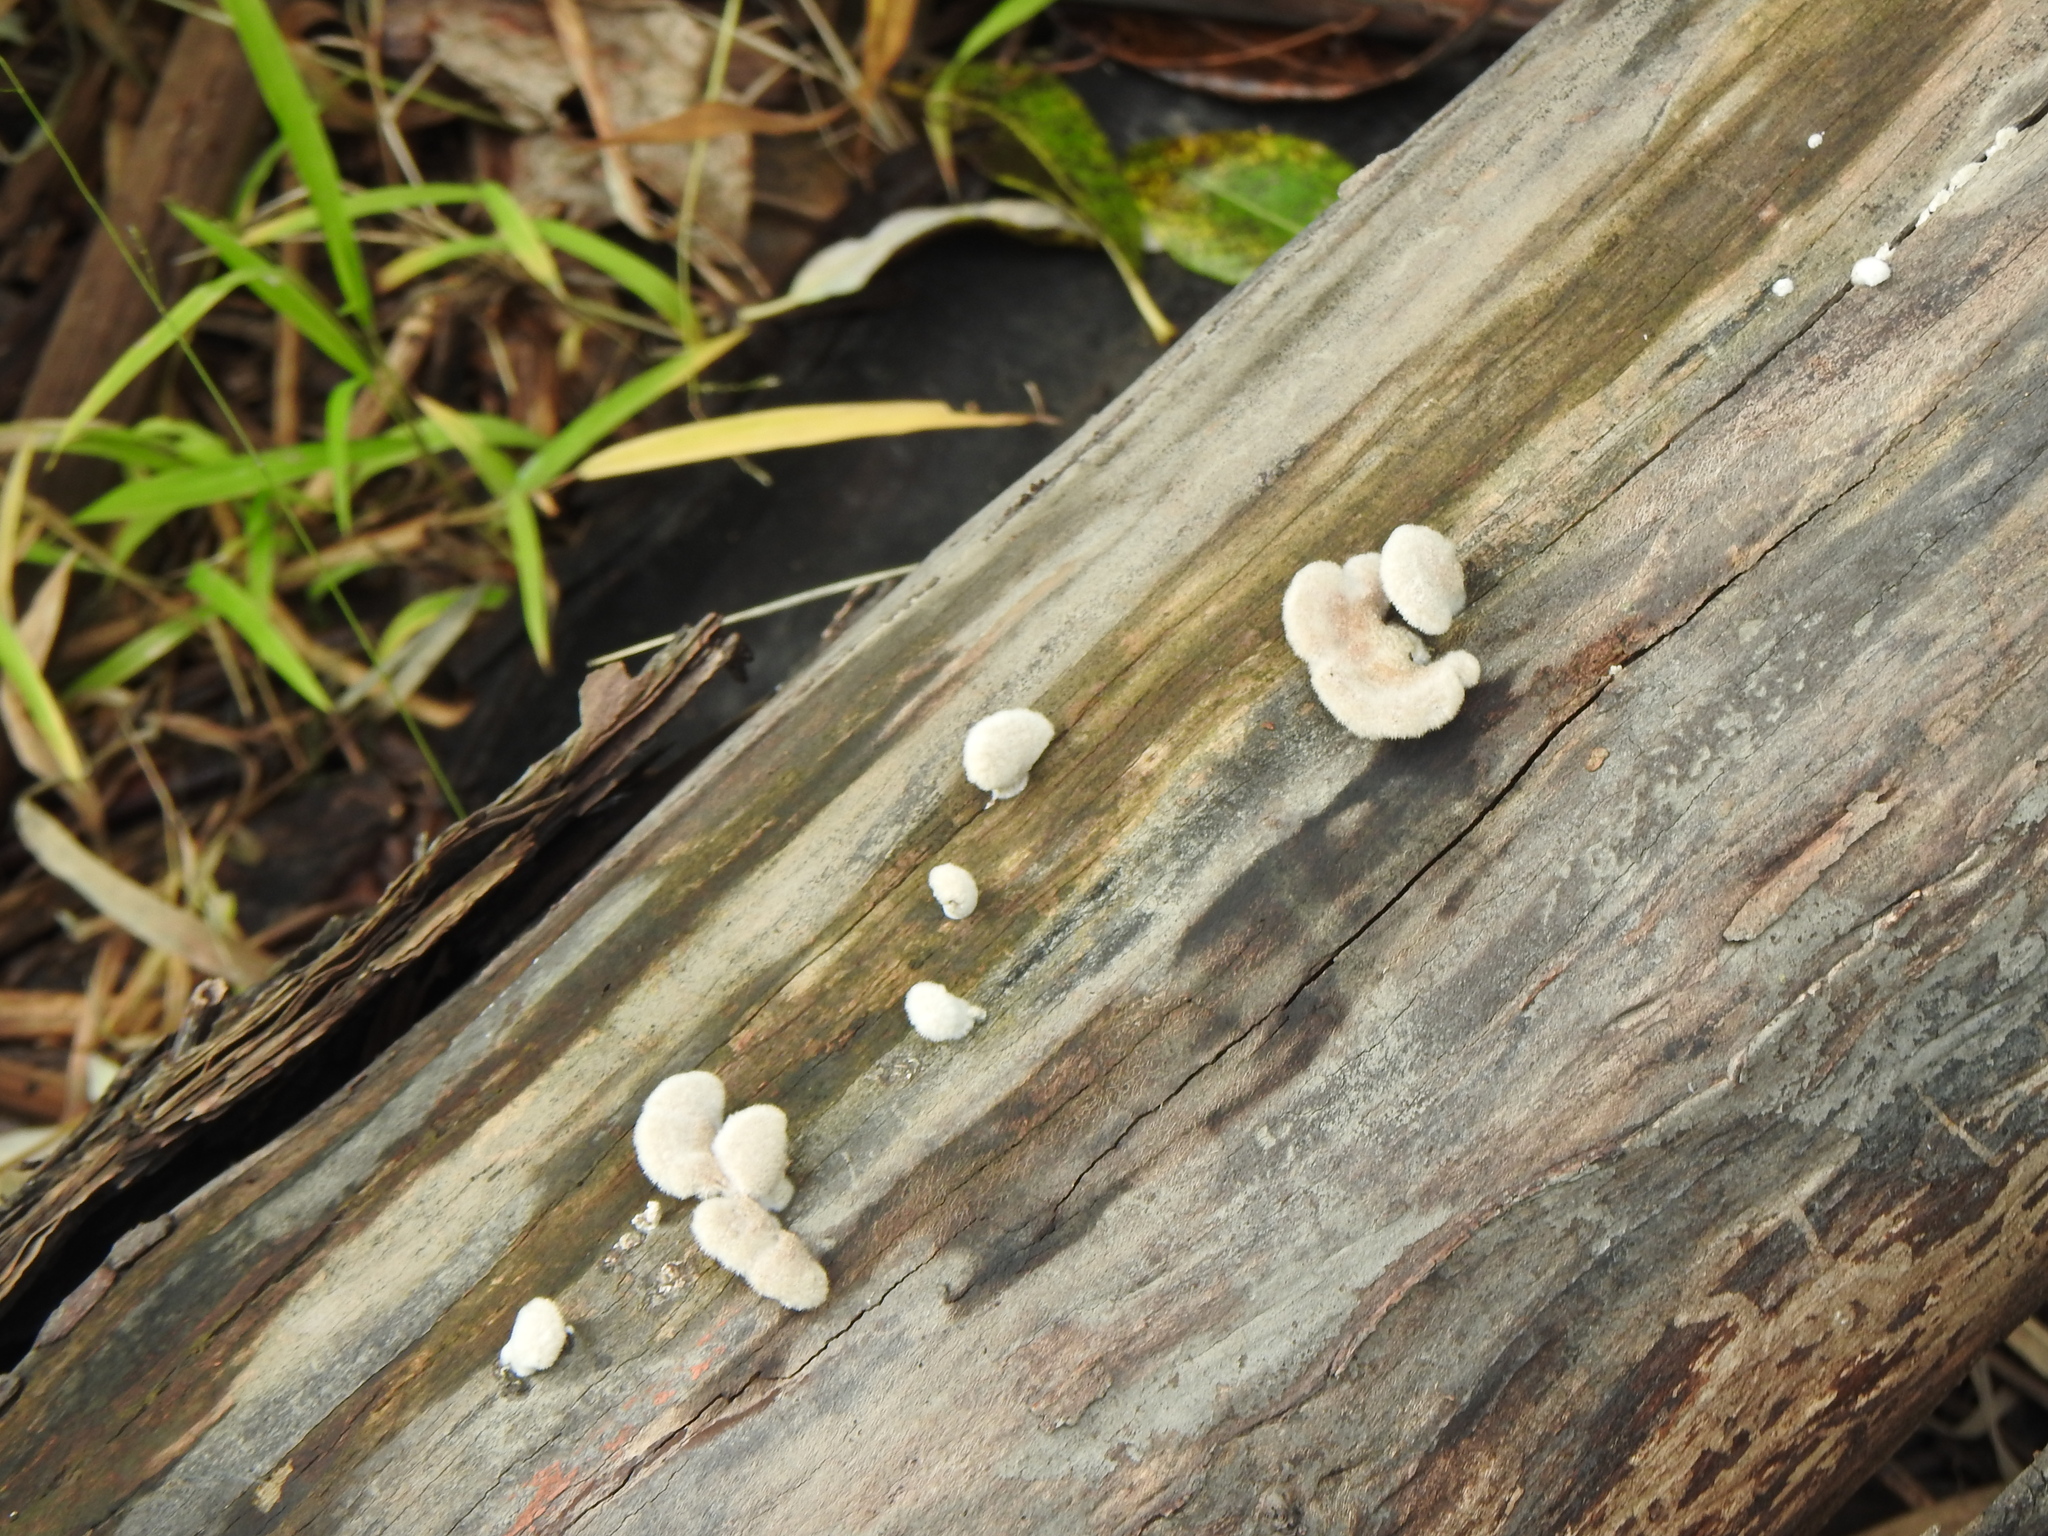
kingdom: Fungi
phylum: Basidiomycota
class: Agaricomycetes
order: Agaricales
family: Schizophyllaceae
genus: Schizophyllum
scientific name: Schizophyllum commune
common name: Common porecrust
